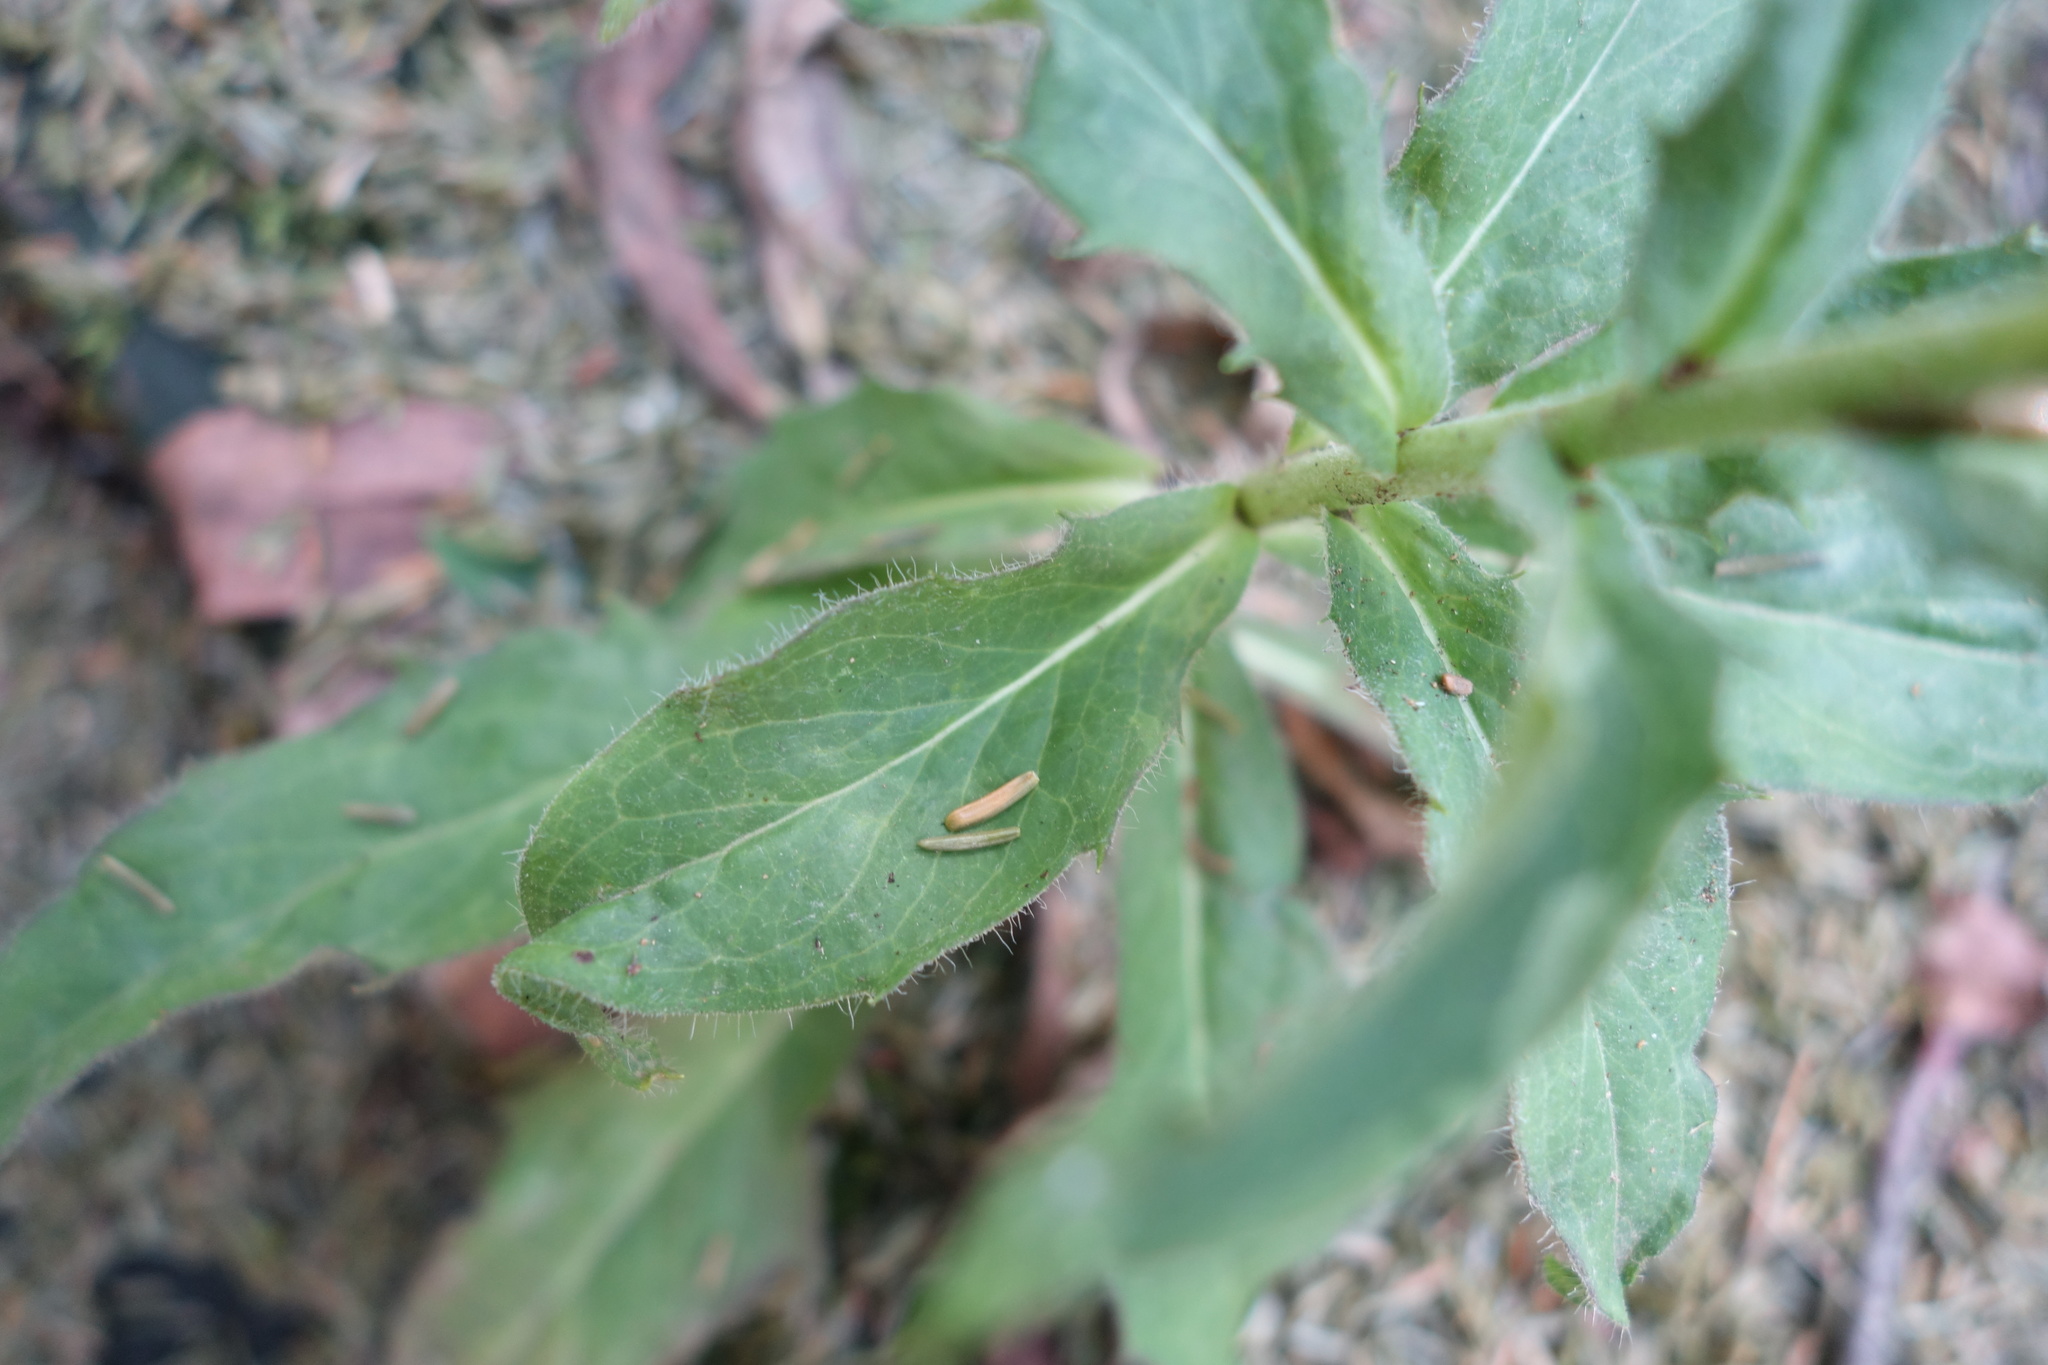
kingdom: Plantae
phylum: Tracheophyta
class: Magnoliopsida
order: Asterales
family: Asteraceae
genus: Hieracium
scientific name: Hieracium umbellatum
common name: Northern hawkweed
